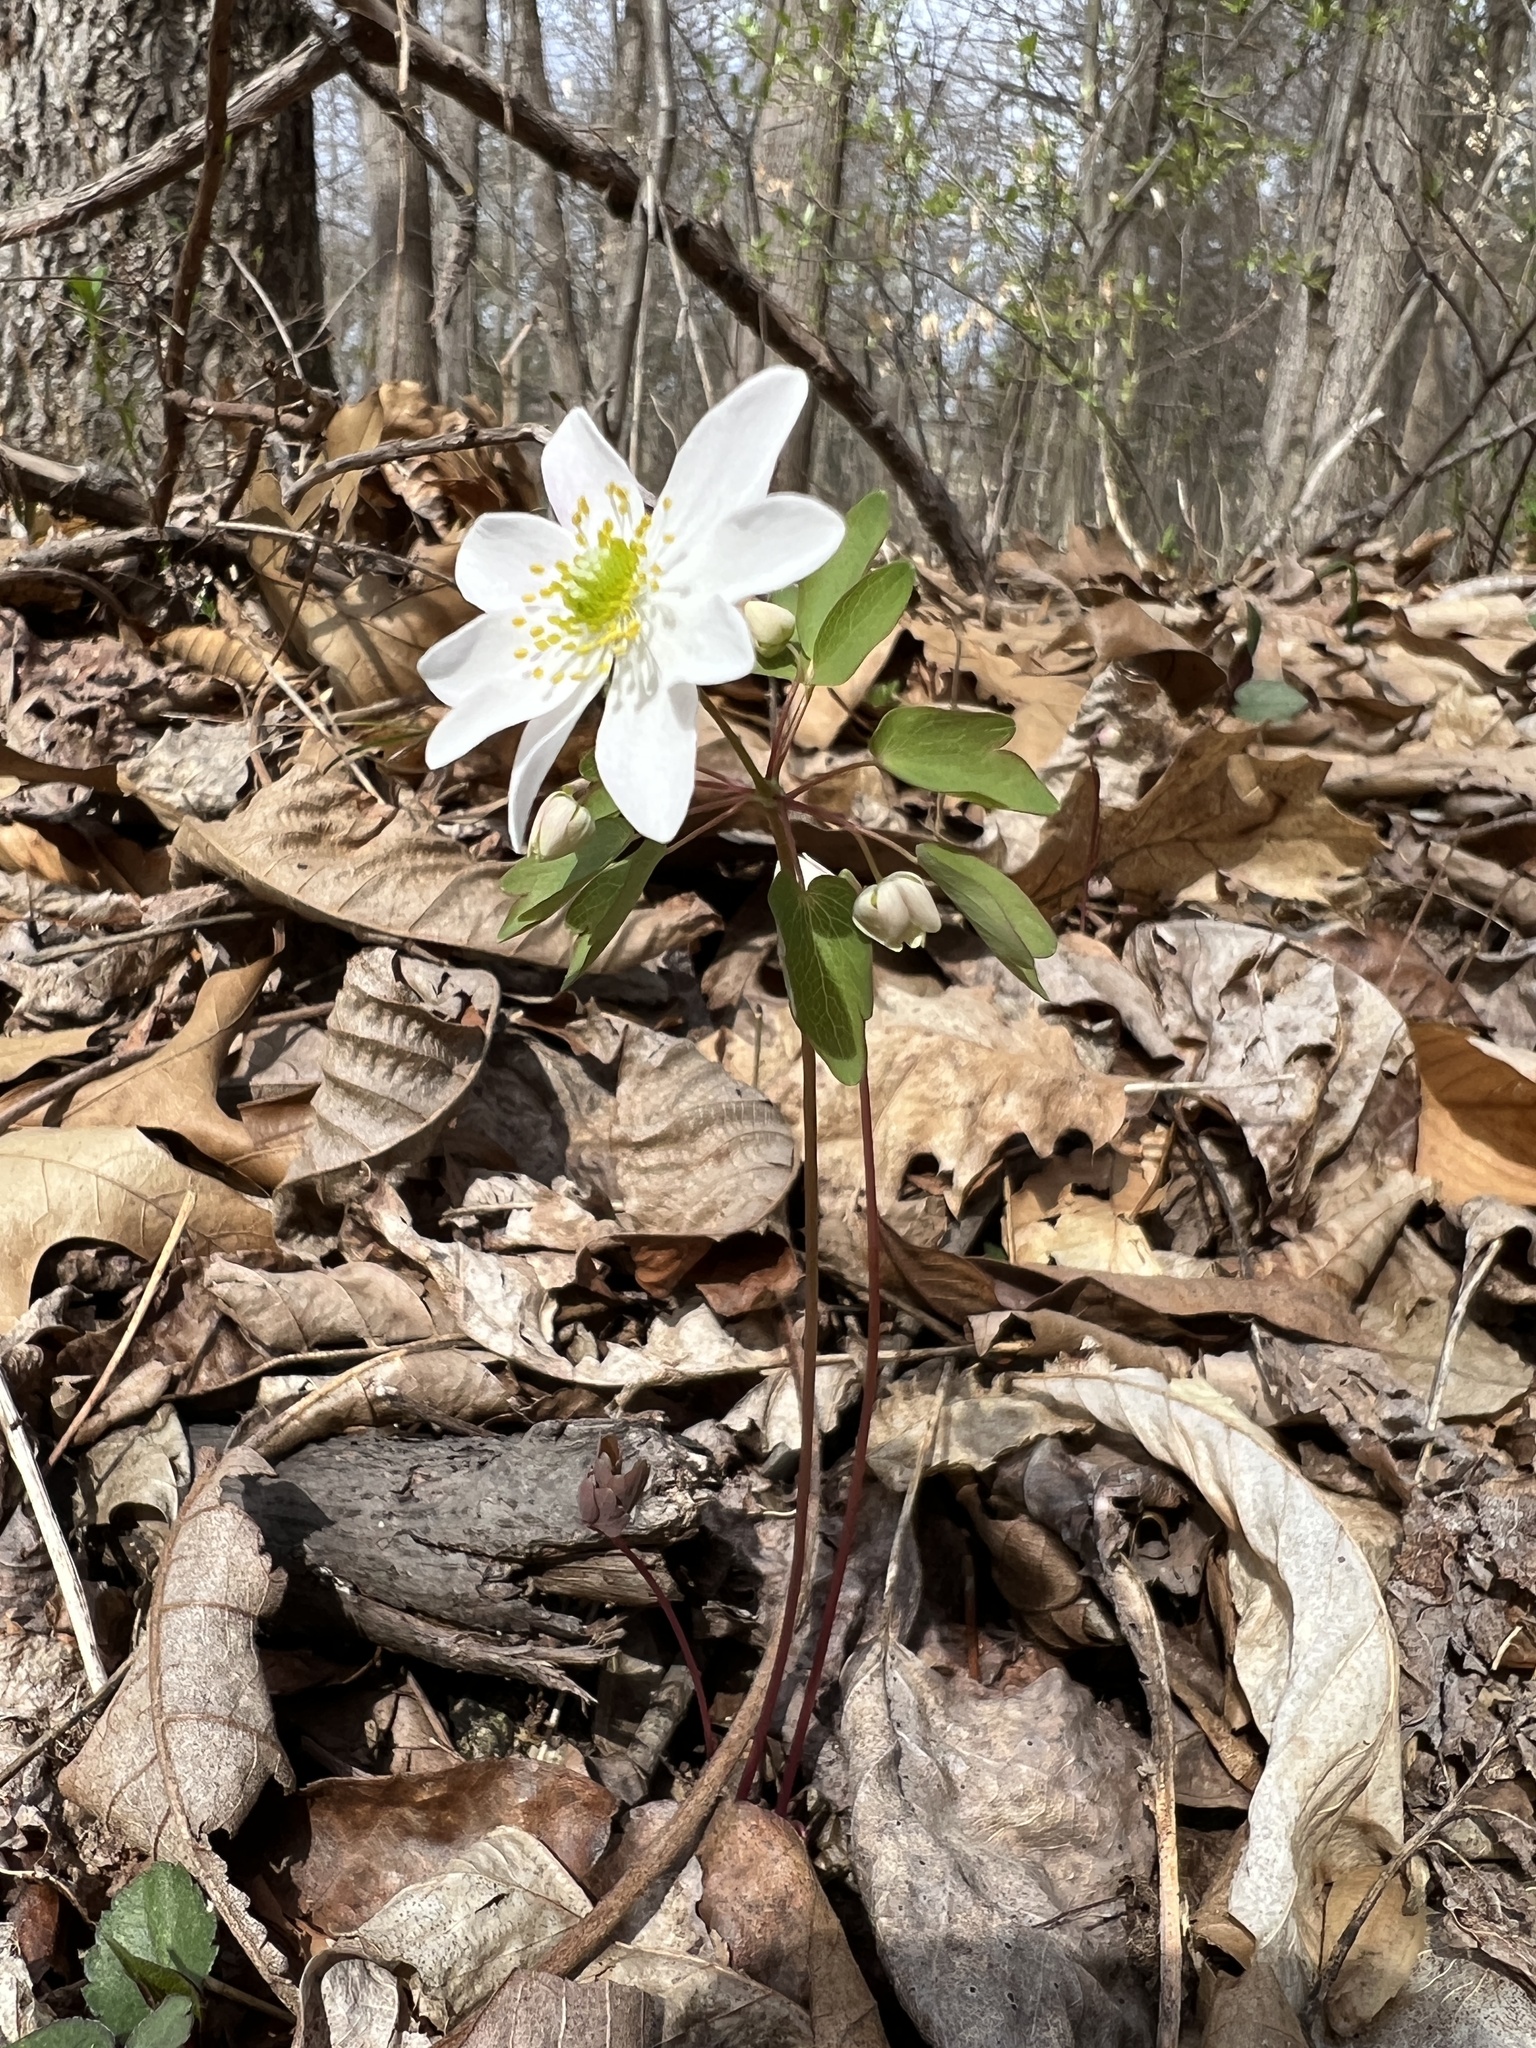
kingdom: Plantae
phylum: Tracheophyta
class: Magnoliopsida
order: Ranunculales
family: Ranunculaceae
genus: Thalictrum
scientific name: Thalictrum thalictroides
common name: Rue-anemone
